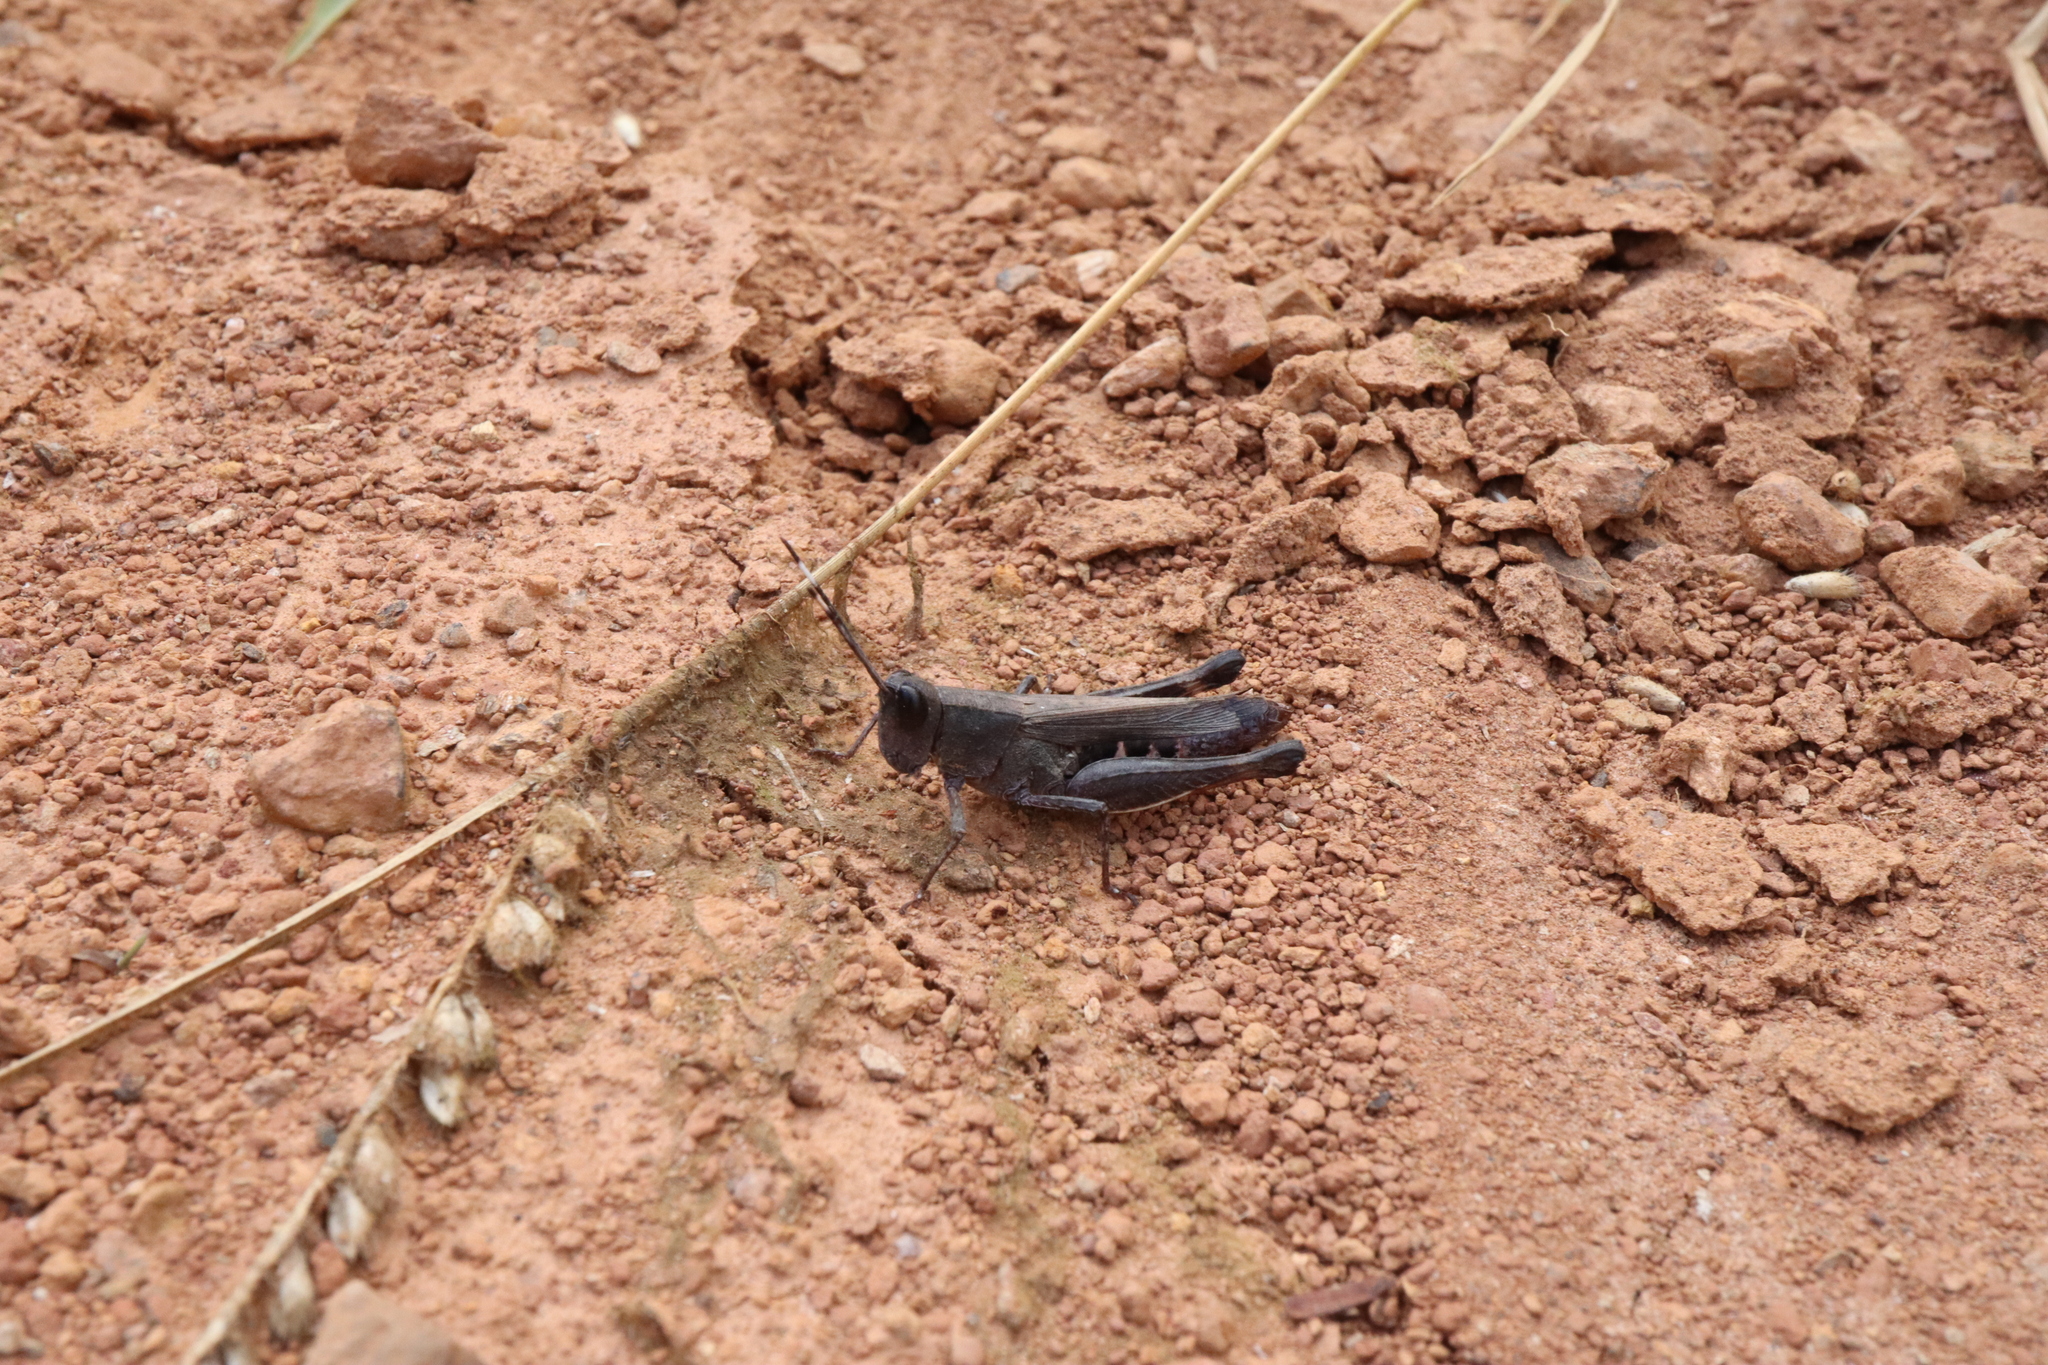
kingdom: Animalia
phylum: Arthropoda
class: Insecta
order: Orthoptera
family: Acrididae
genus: Rectitropis
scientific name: Rectitropis australis
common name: Queensland white-tips
